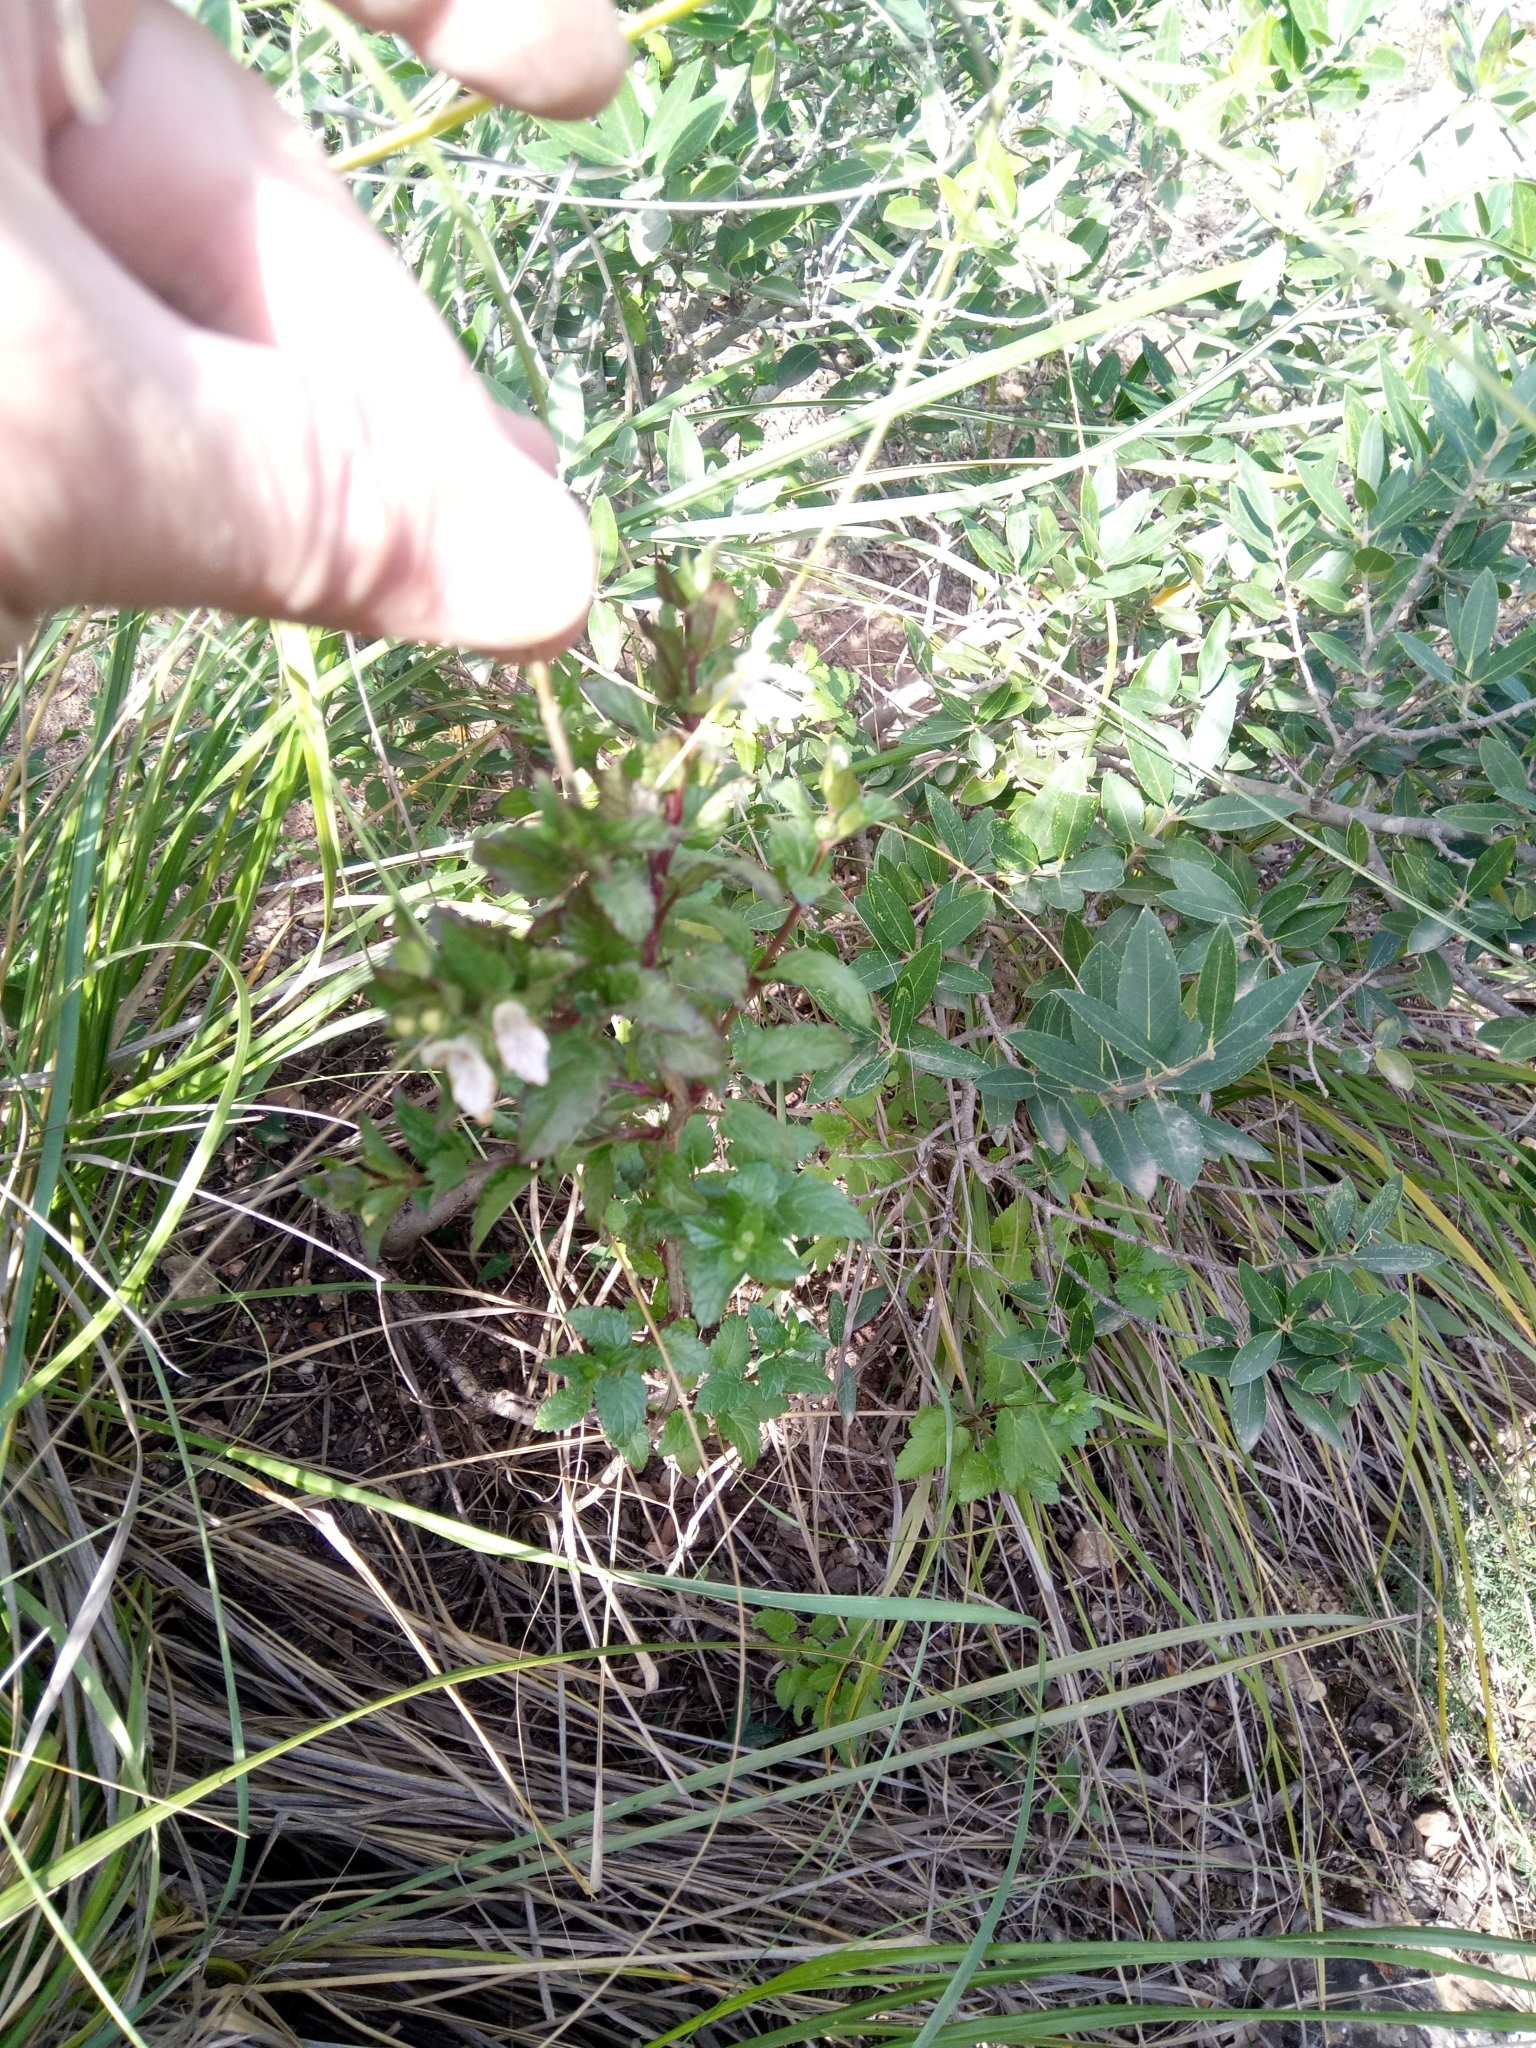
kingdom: Plantae
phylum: Tracheophyta
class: Magnoliopsida
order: Lamiales
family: Lamiaceae
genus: Prasium
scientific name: Prasium majus
